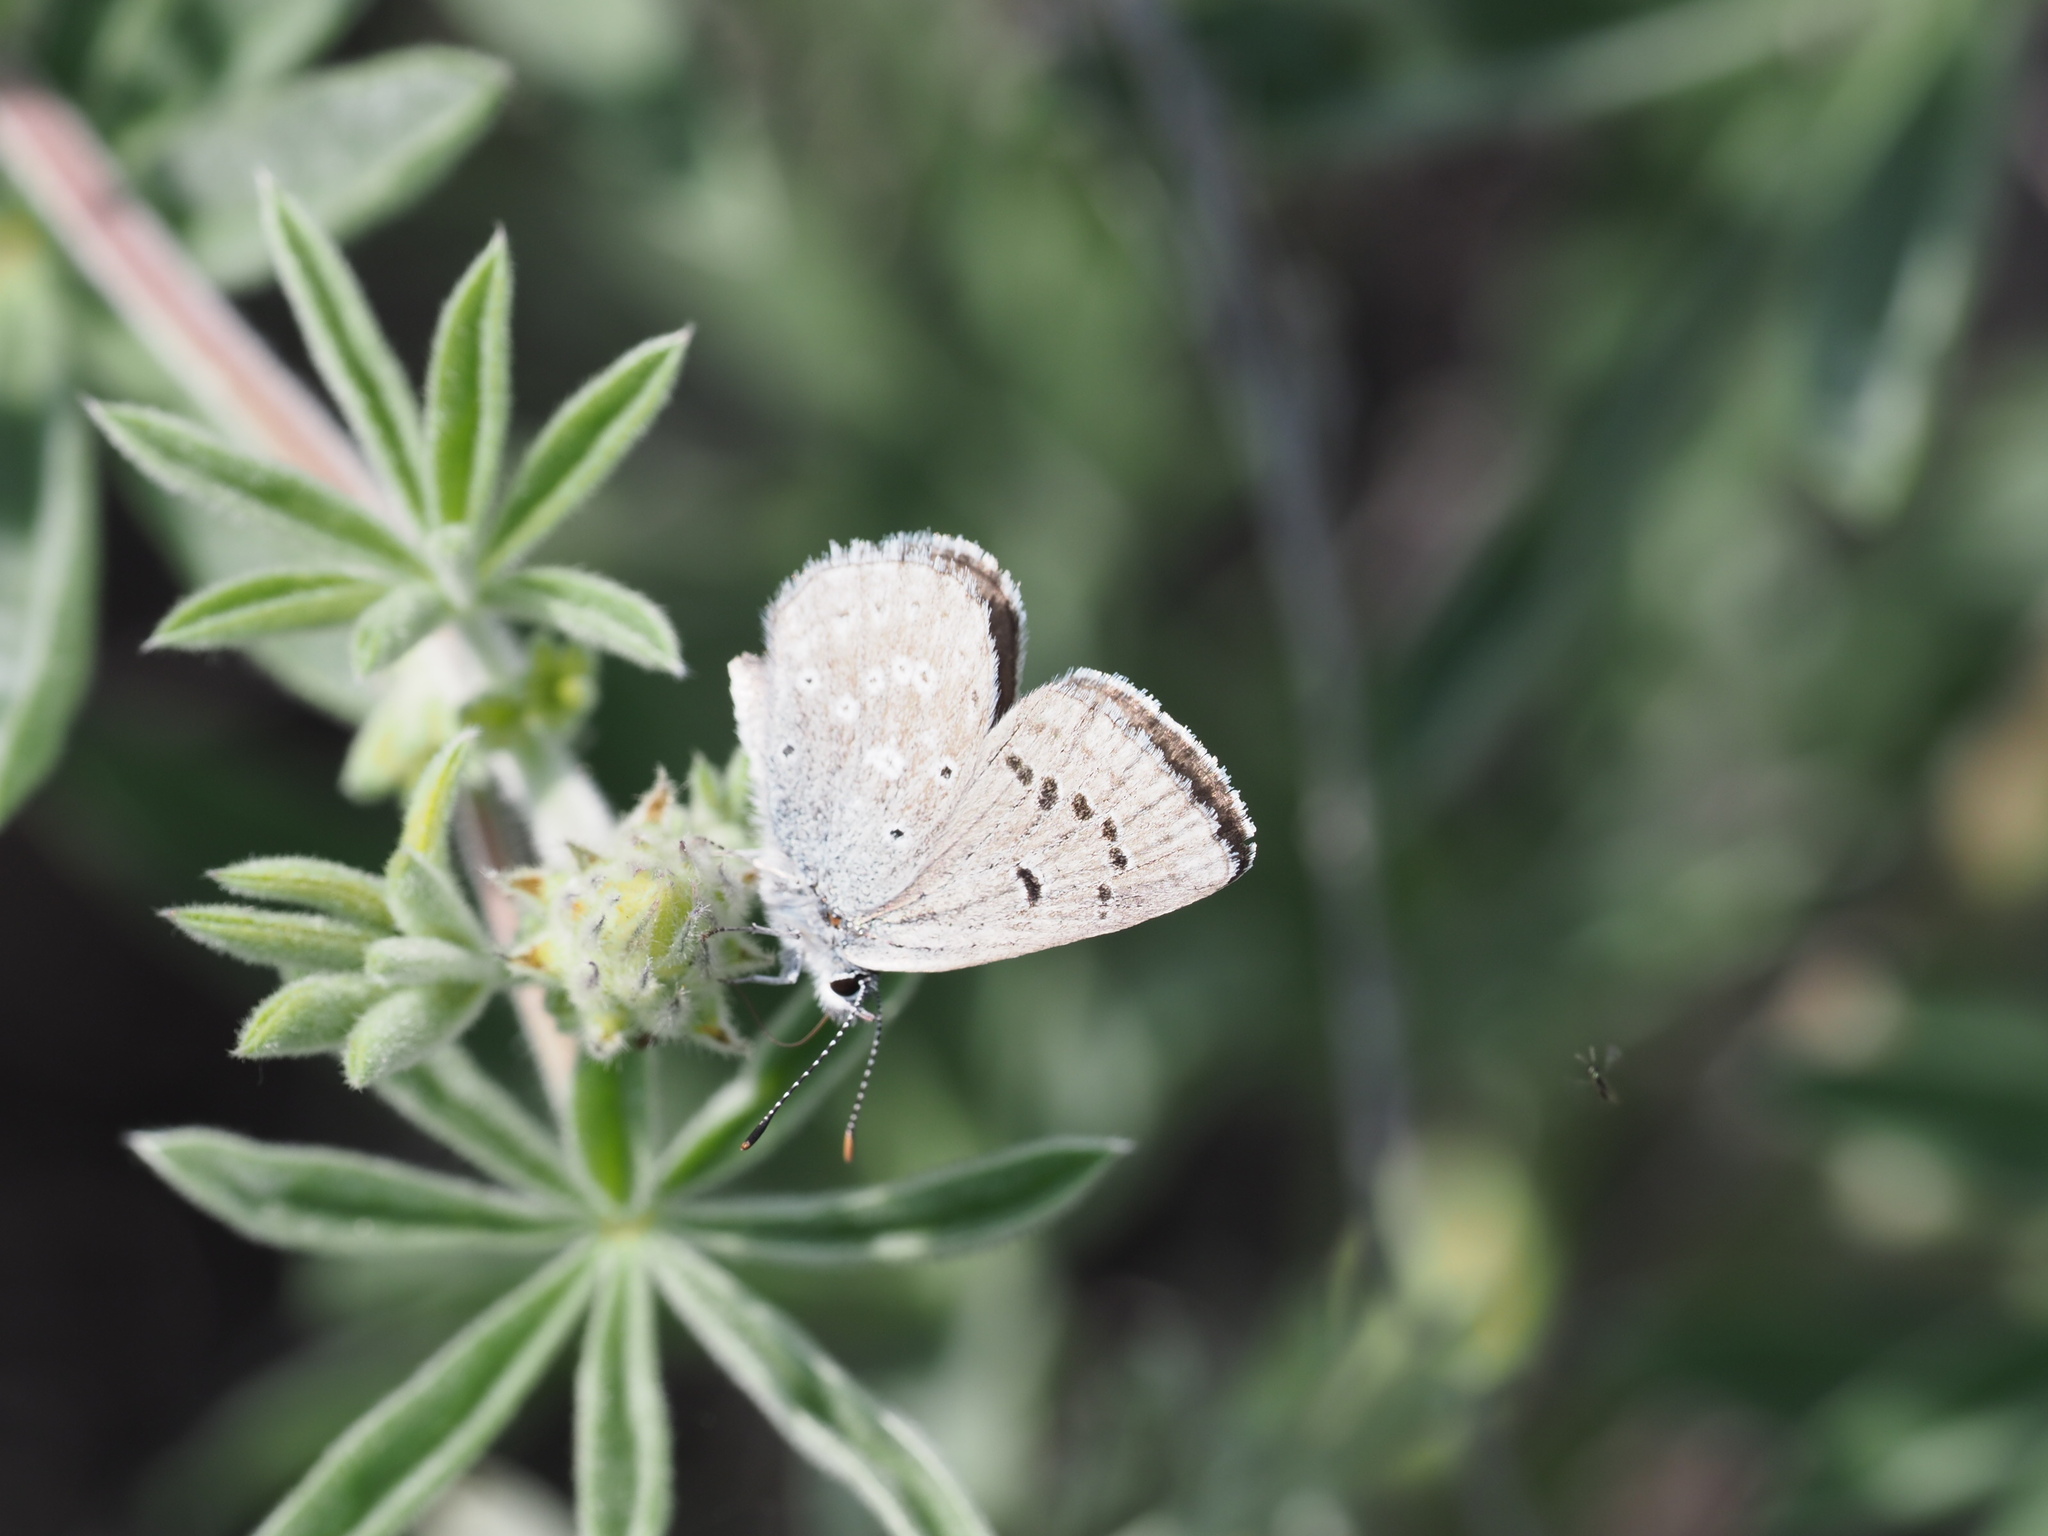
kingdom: Animalia
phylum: Arthropoda
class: Insecta
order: Lepidoptera
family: Lycaenidae
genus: Icaricia
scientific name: Icaricia icarioides
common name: Boisduval's blue
